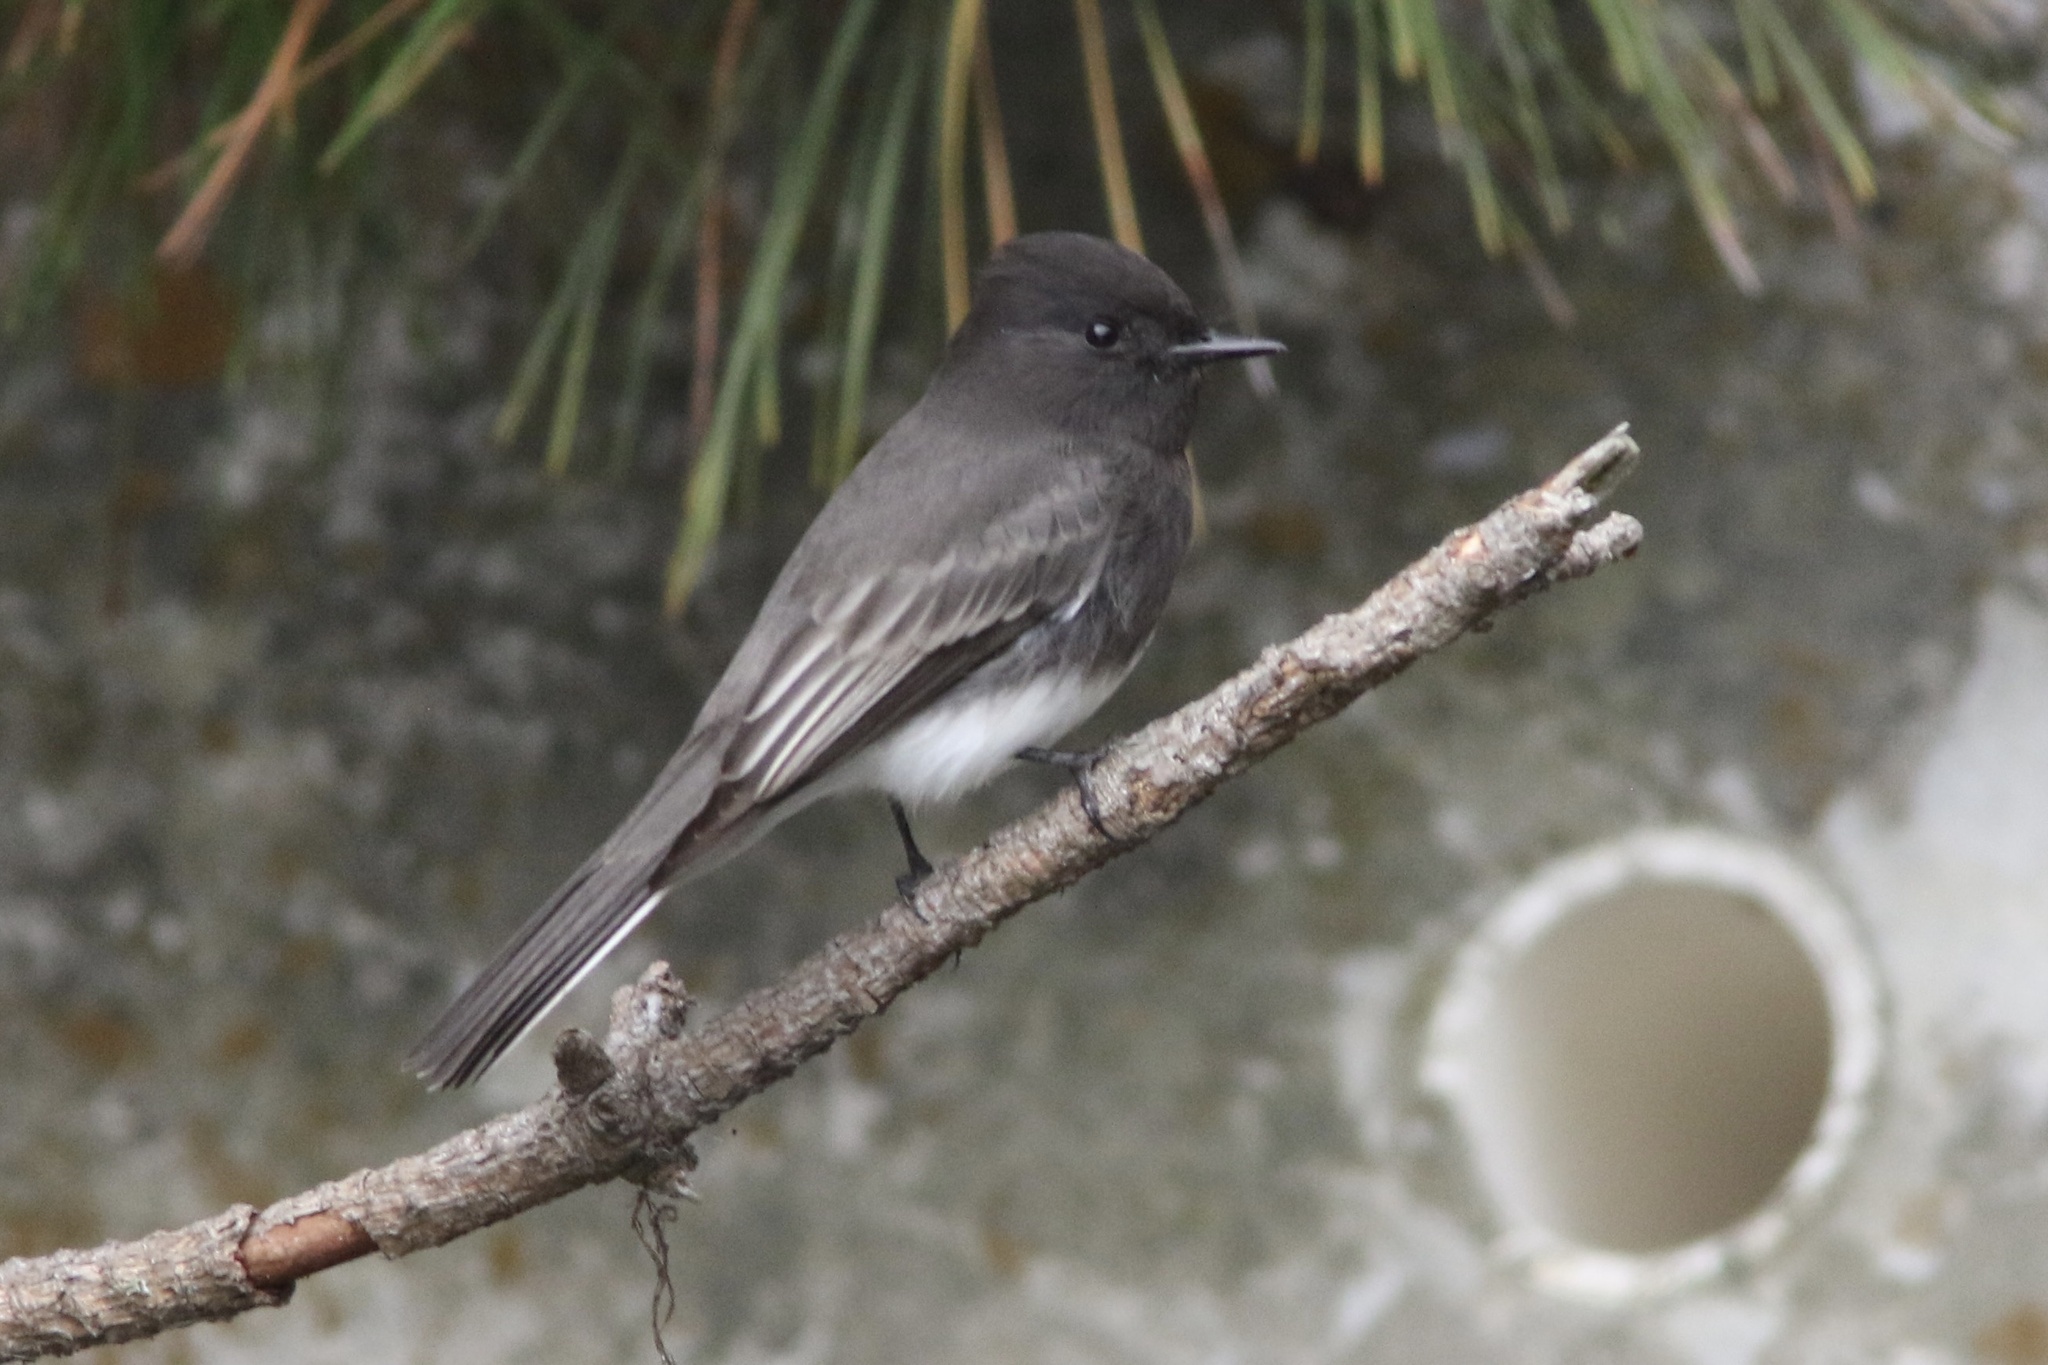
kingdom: Animalia
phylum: Chordata
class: Aves
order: Passeriformes
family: Tyrannidae
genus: Sayornis
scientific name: Sayornis nigricans
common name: Black phoebe
